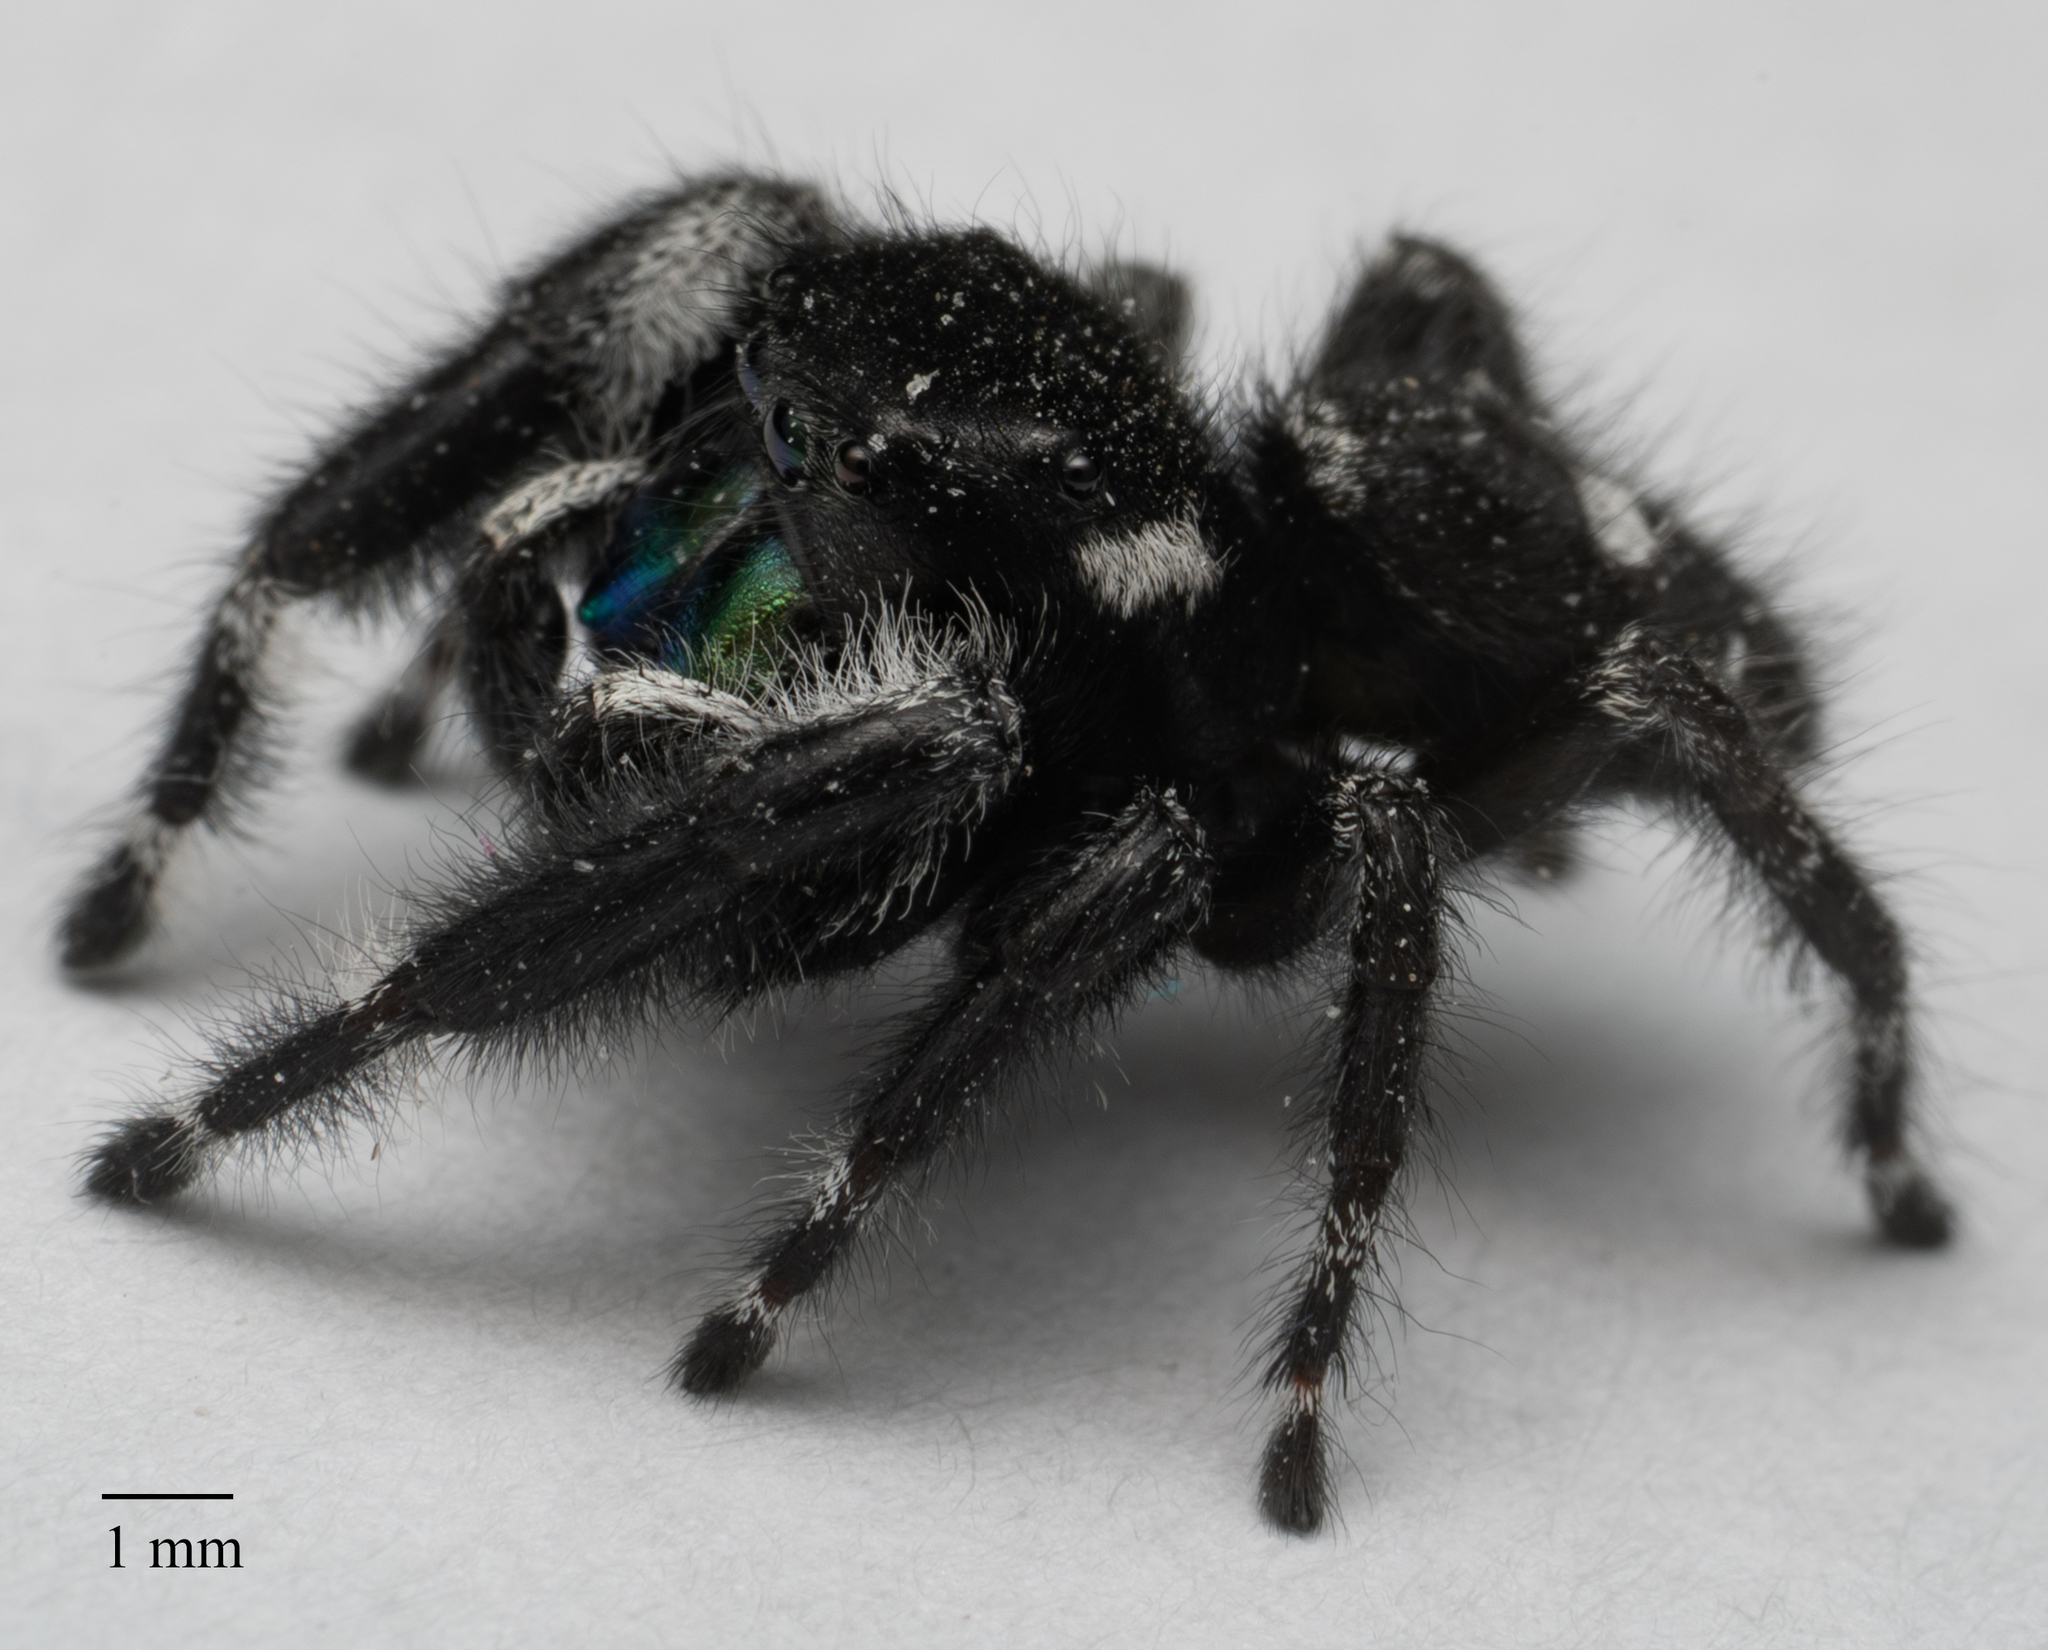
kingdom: Animalia
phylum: Arthropoda
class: Arachnida
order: Araneae
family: Salticidae
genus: Phidippus
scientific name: Phidippus audax
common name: Bold jumper
